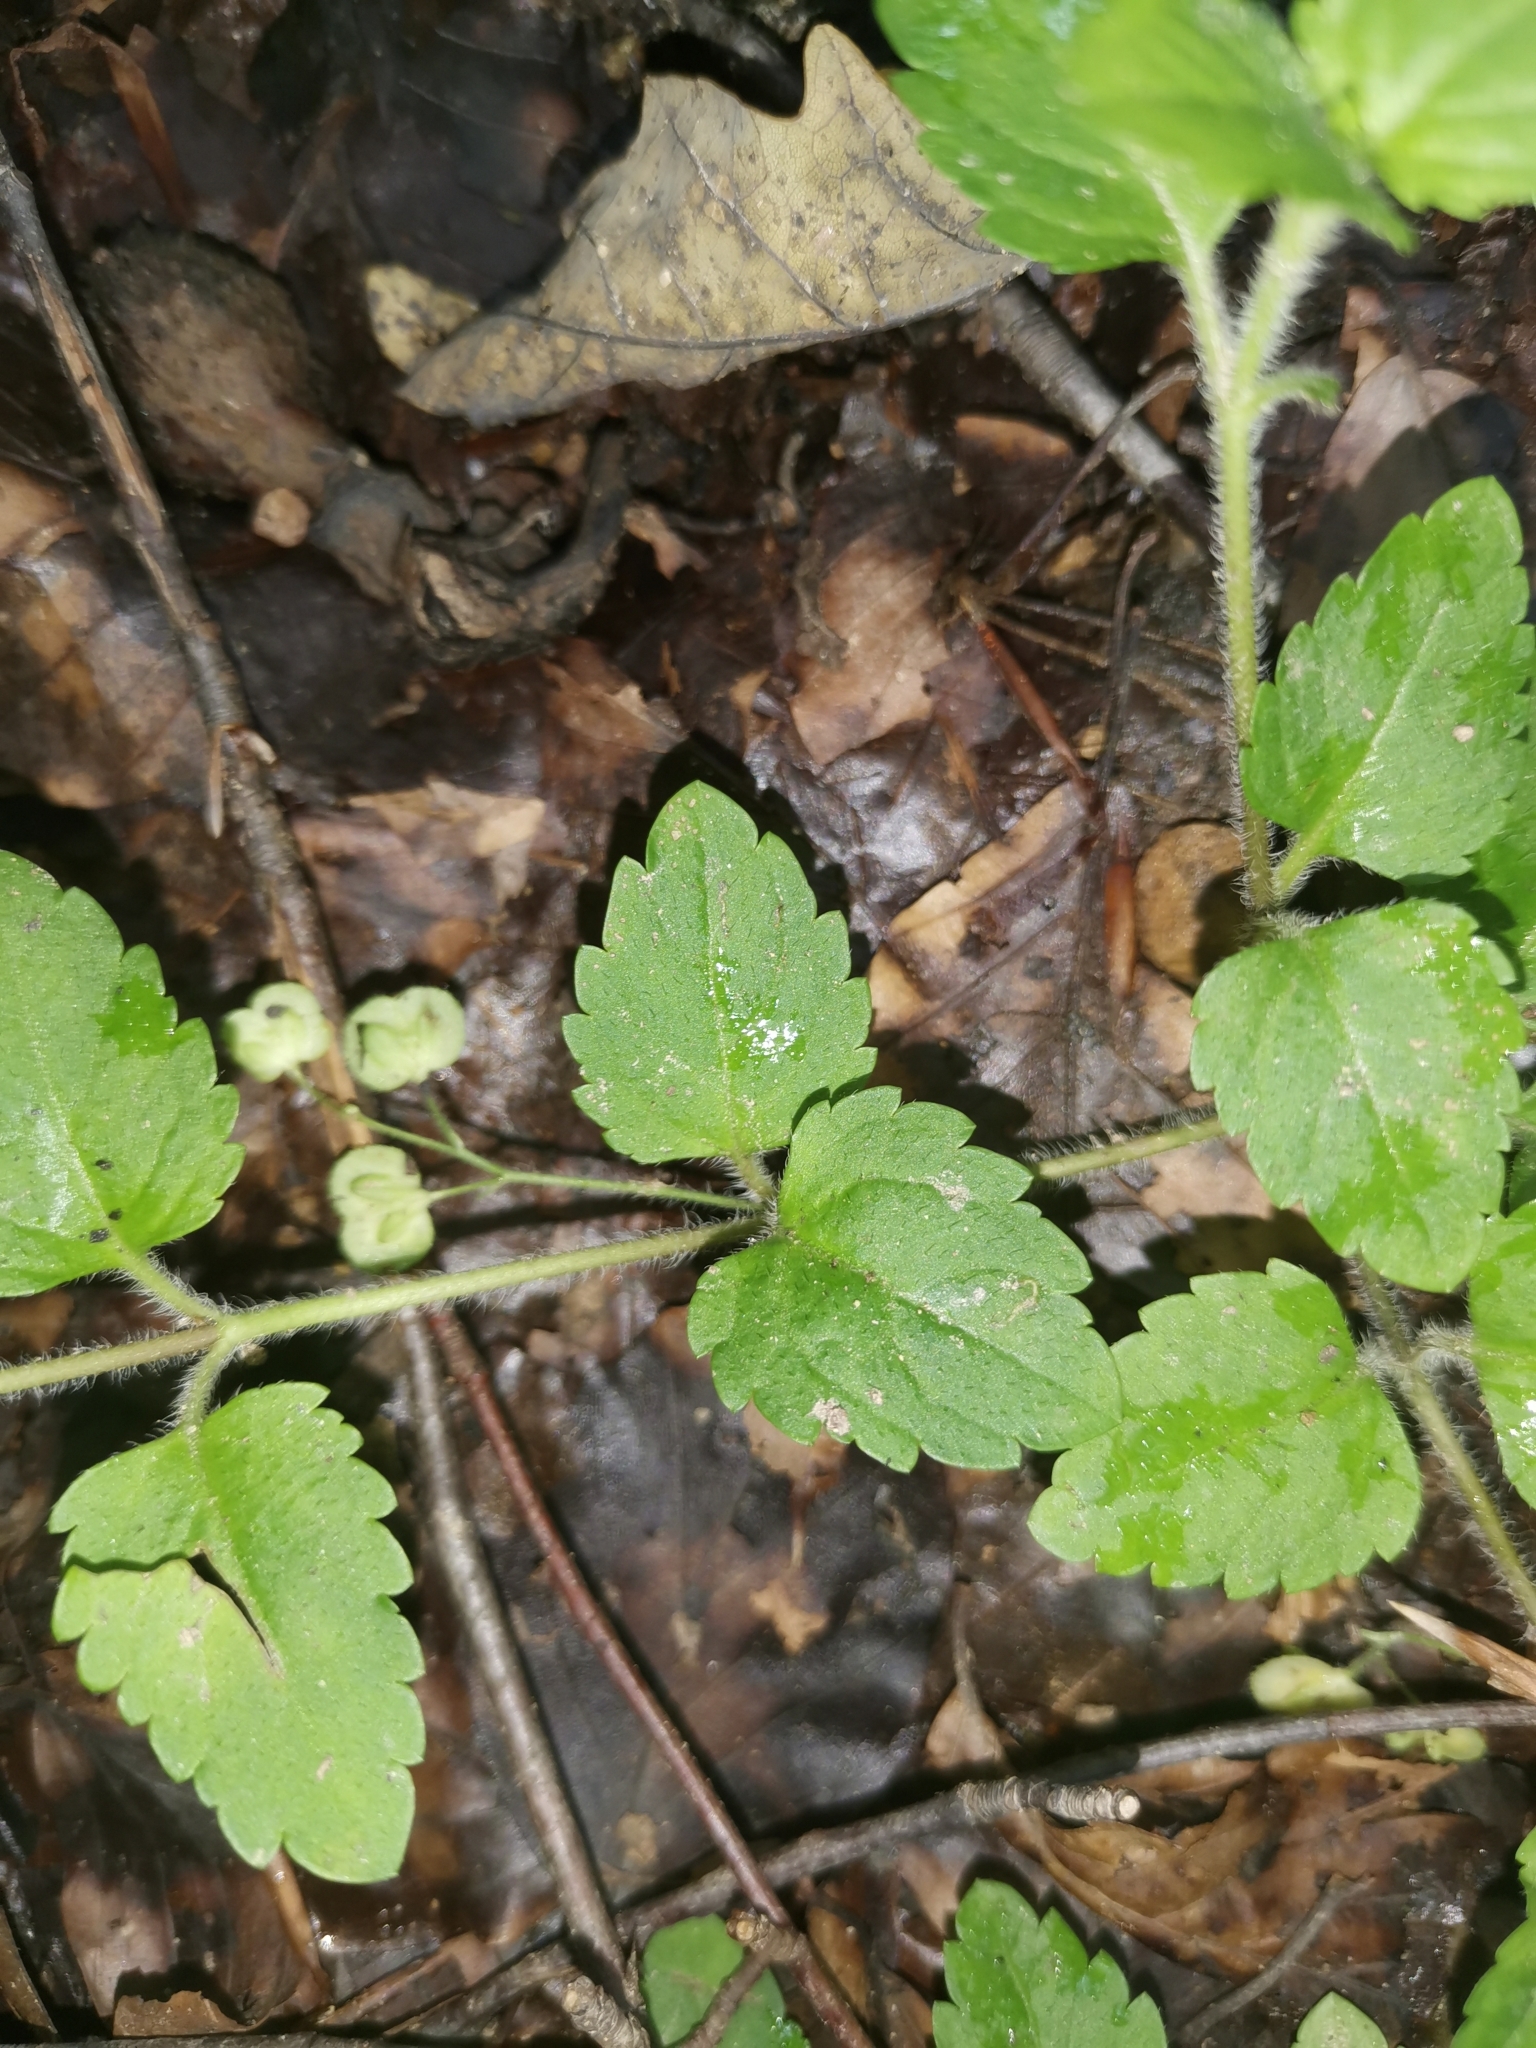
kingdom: Plantae
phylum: Tracheophyta
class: Magnoliopsida
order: Lamiales
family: Plantaginaceae
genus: Veronica
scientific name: Veronica montana
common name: Wood speedwell
